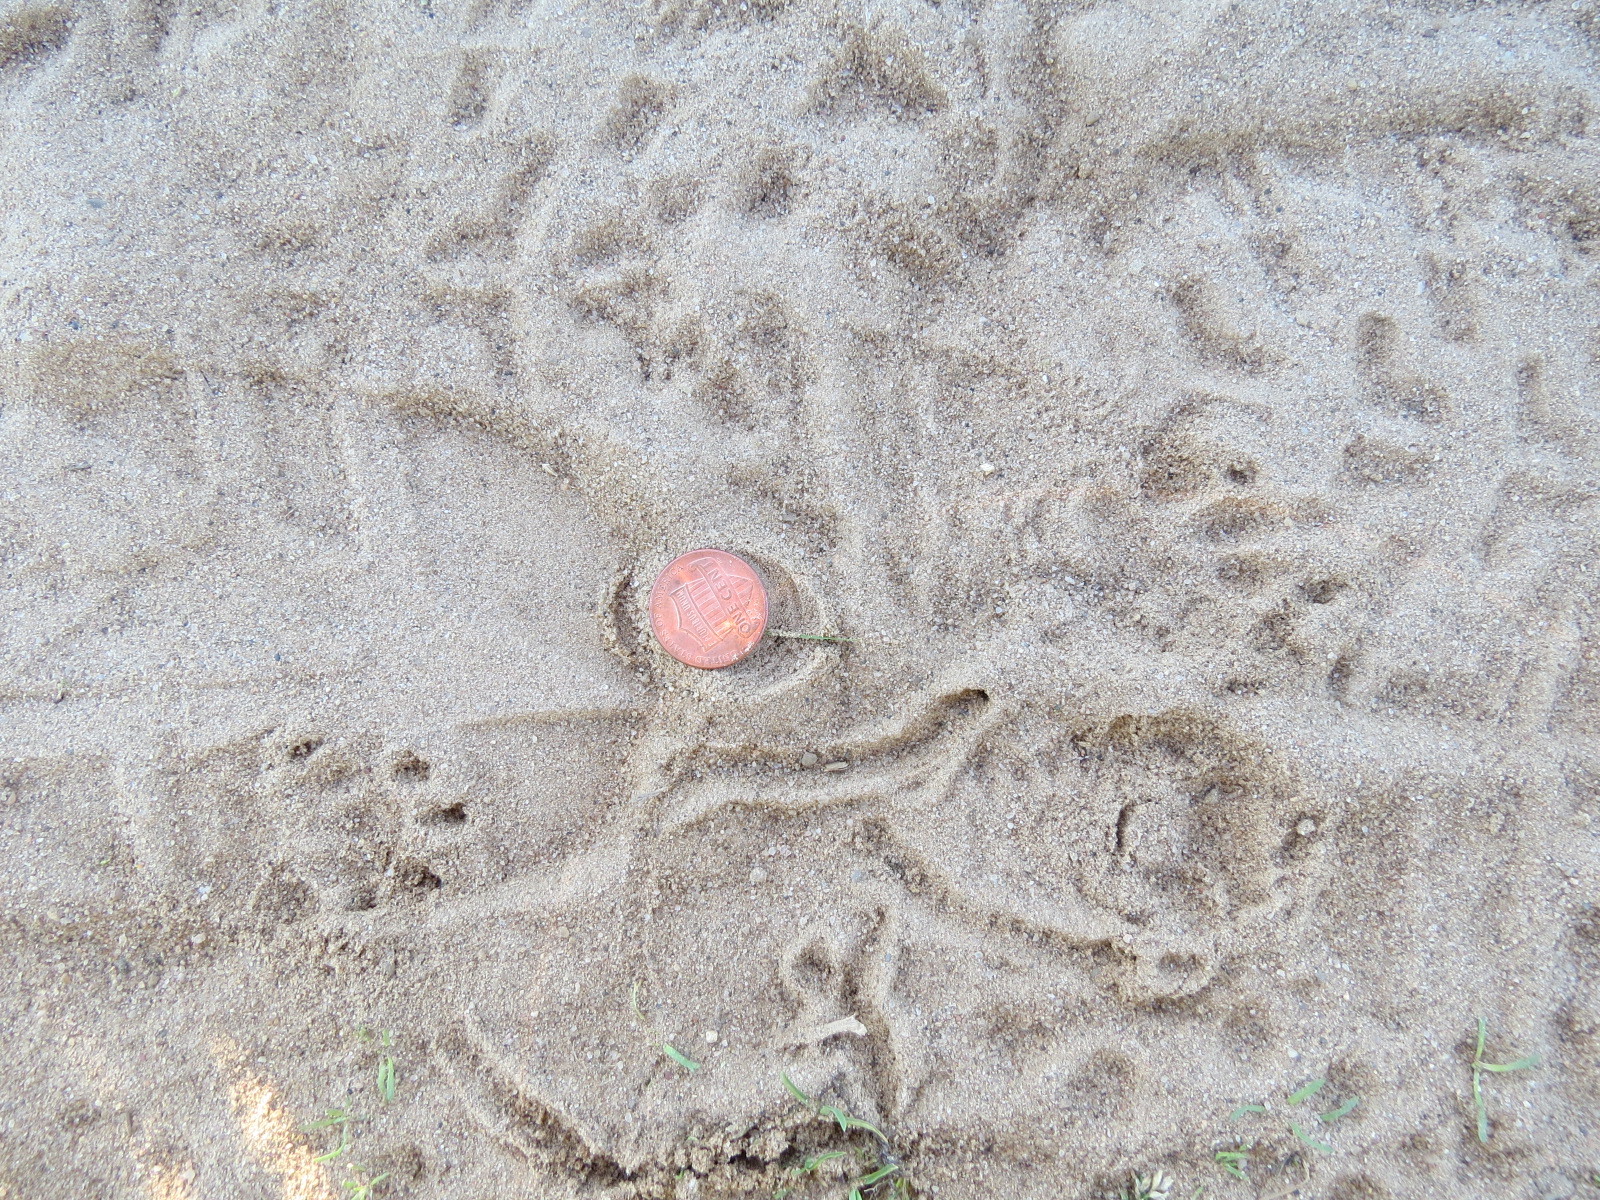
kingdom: Animalia
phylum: Chordata
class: Mammalia
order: Carnivora
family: Mephitidae
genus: Mephitis
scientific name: Mephitis mephitis
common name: Striped skunk
